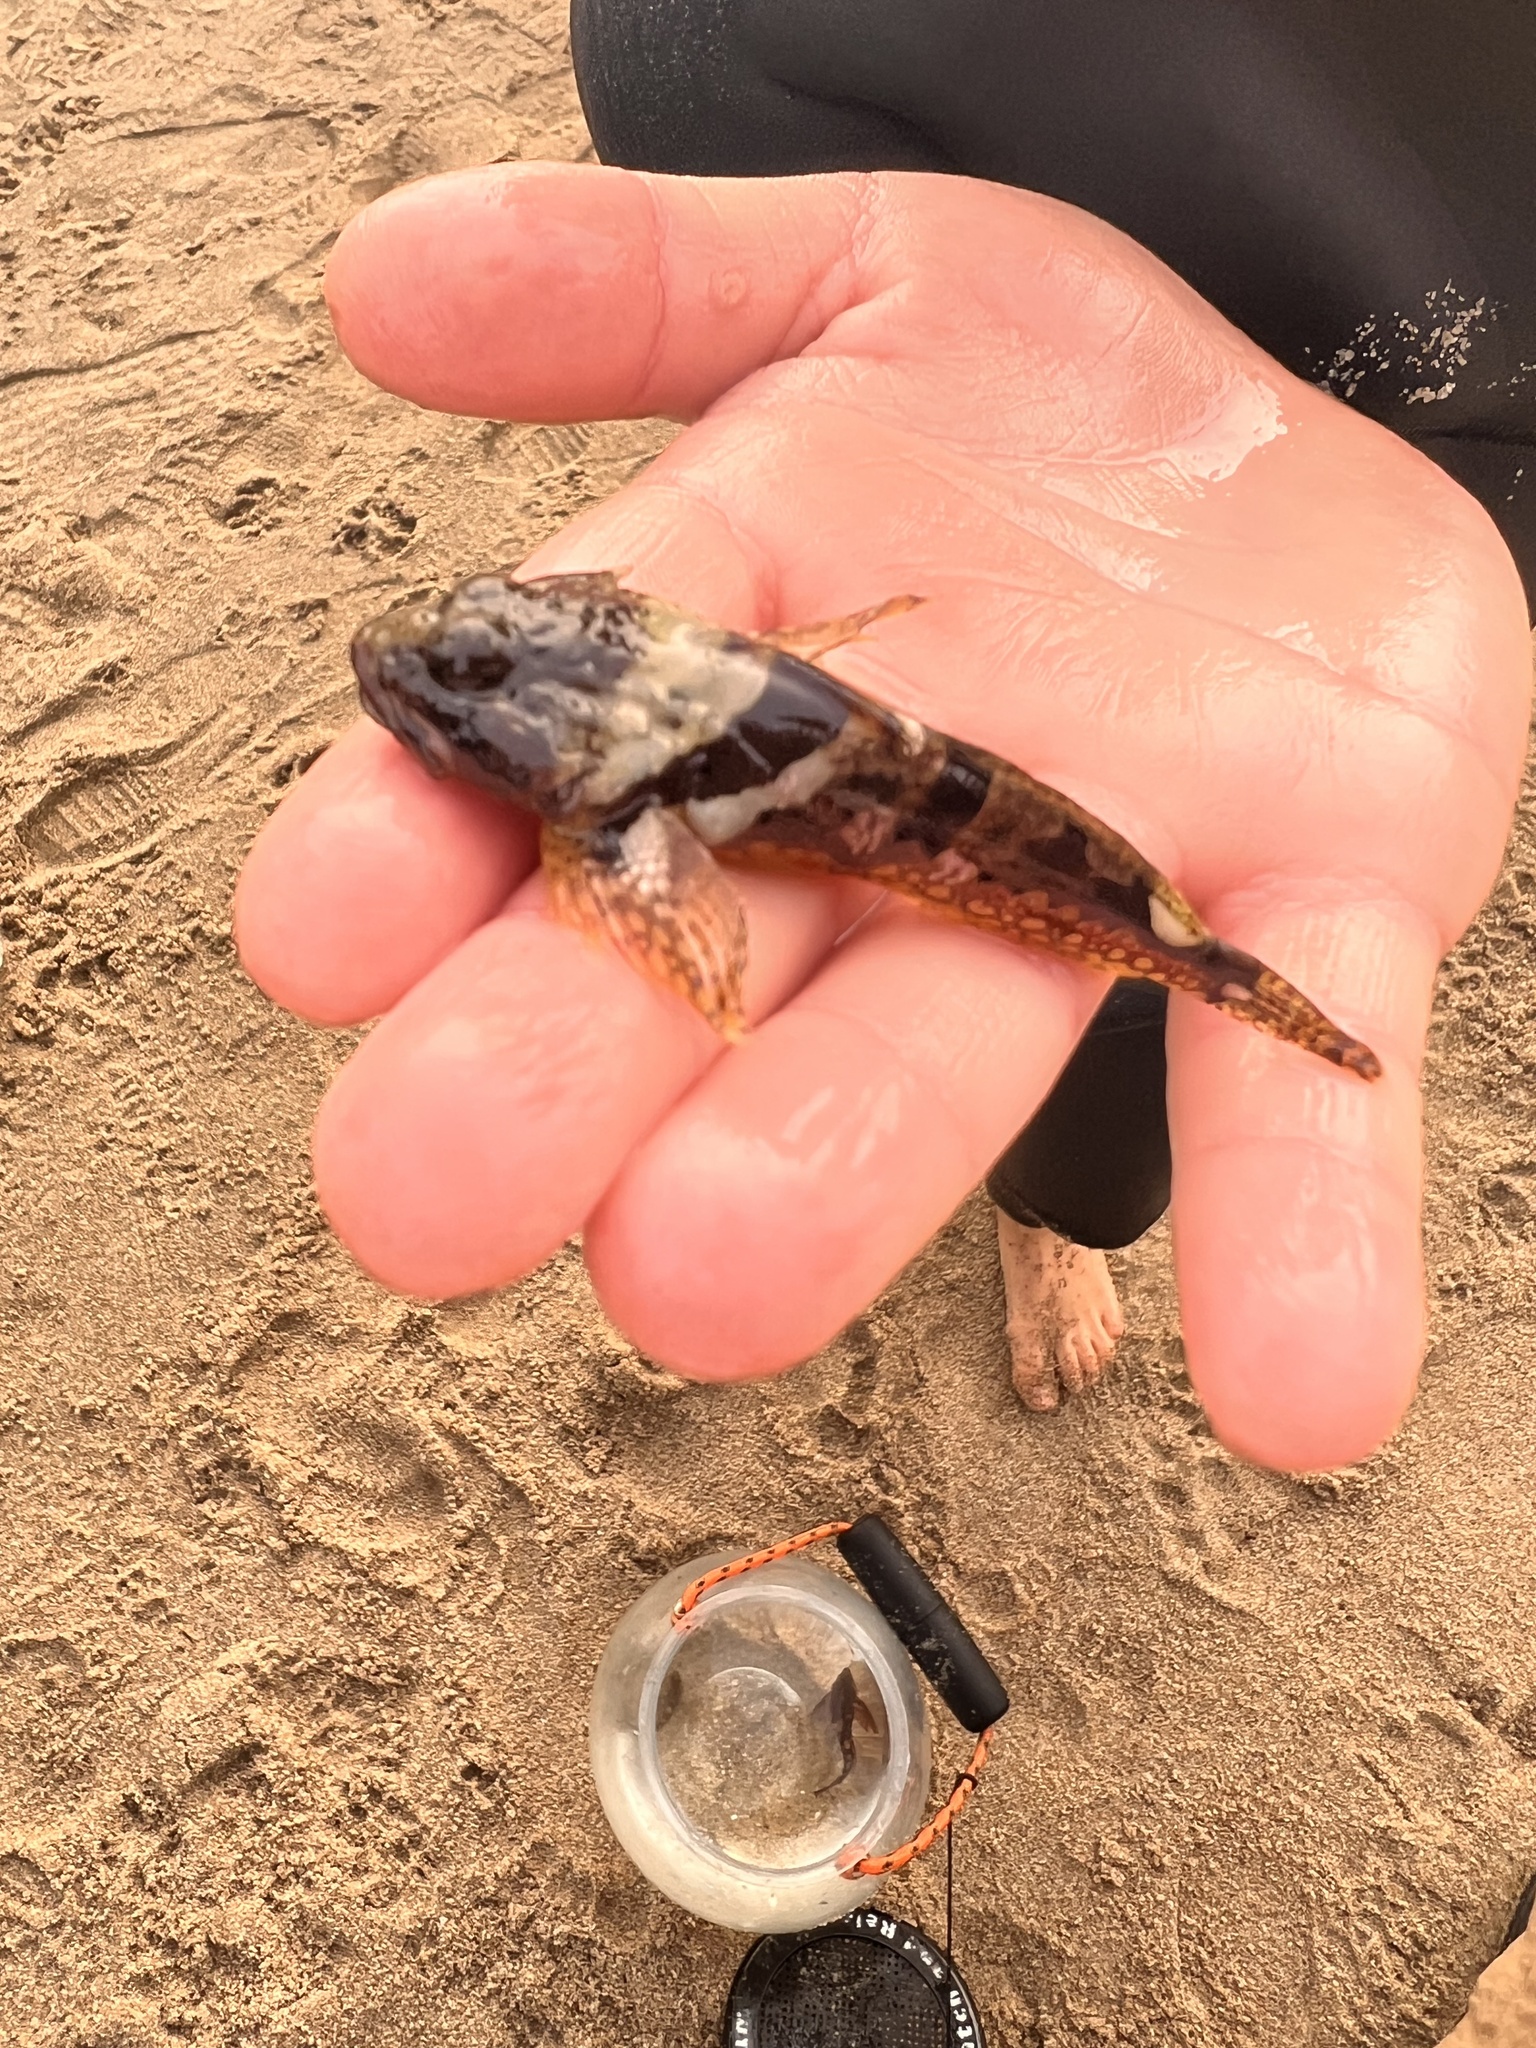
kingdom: Animalia
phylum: Chordata
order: Scorpaeniformes
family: Cottidae
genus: Artedius
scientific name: Artedius lateralis
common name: Smooth-head sculpin
